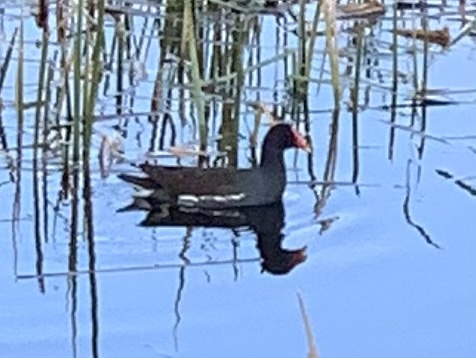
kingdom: Animalia
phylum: Chordata
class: Aves
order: Gruiformes
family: Rallidae
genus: Gallinula
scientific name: Gallinula chloropus
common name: Common moorhen
